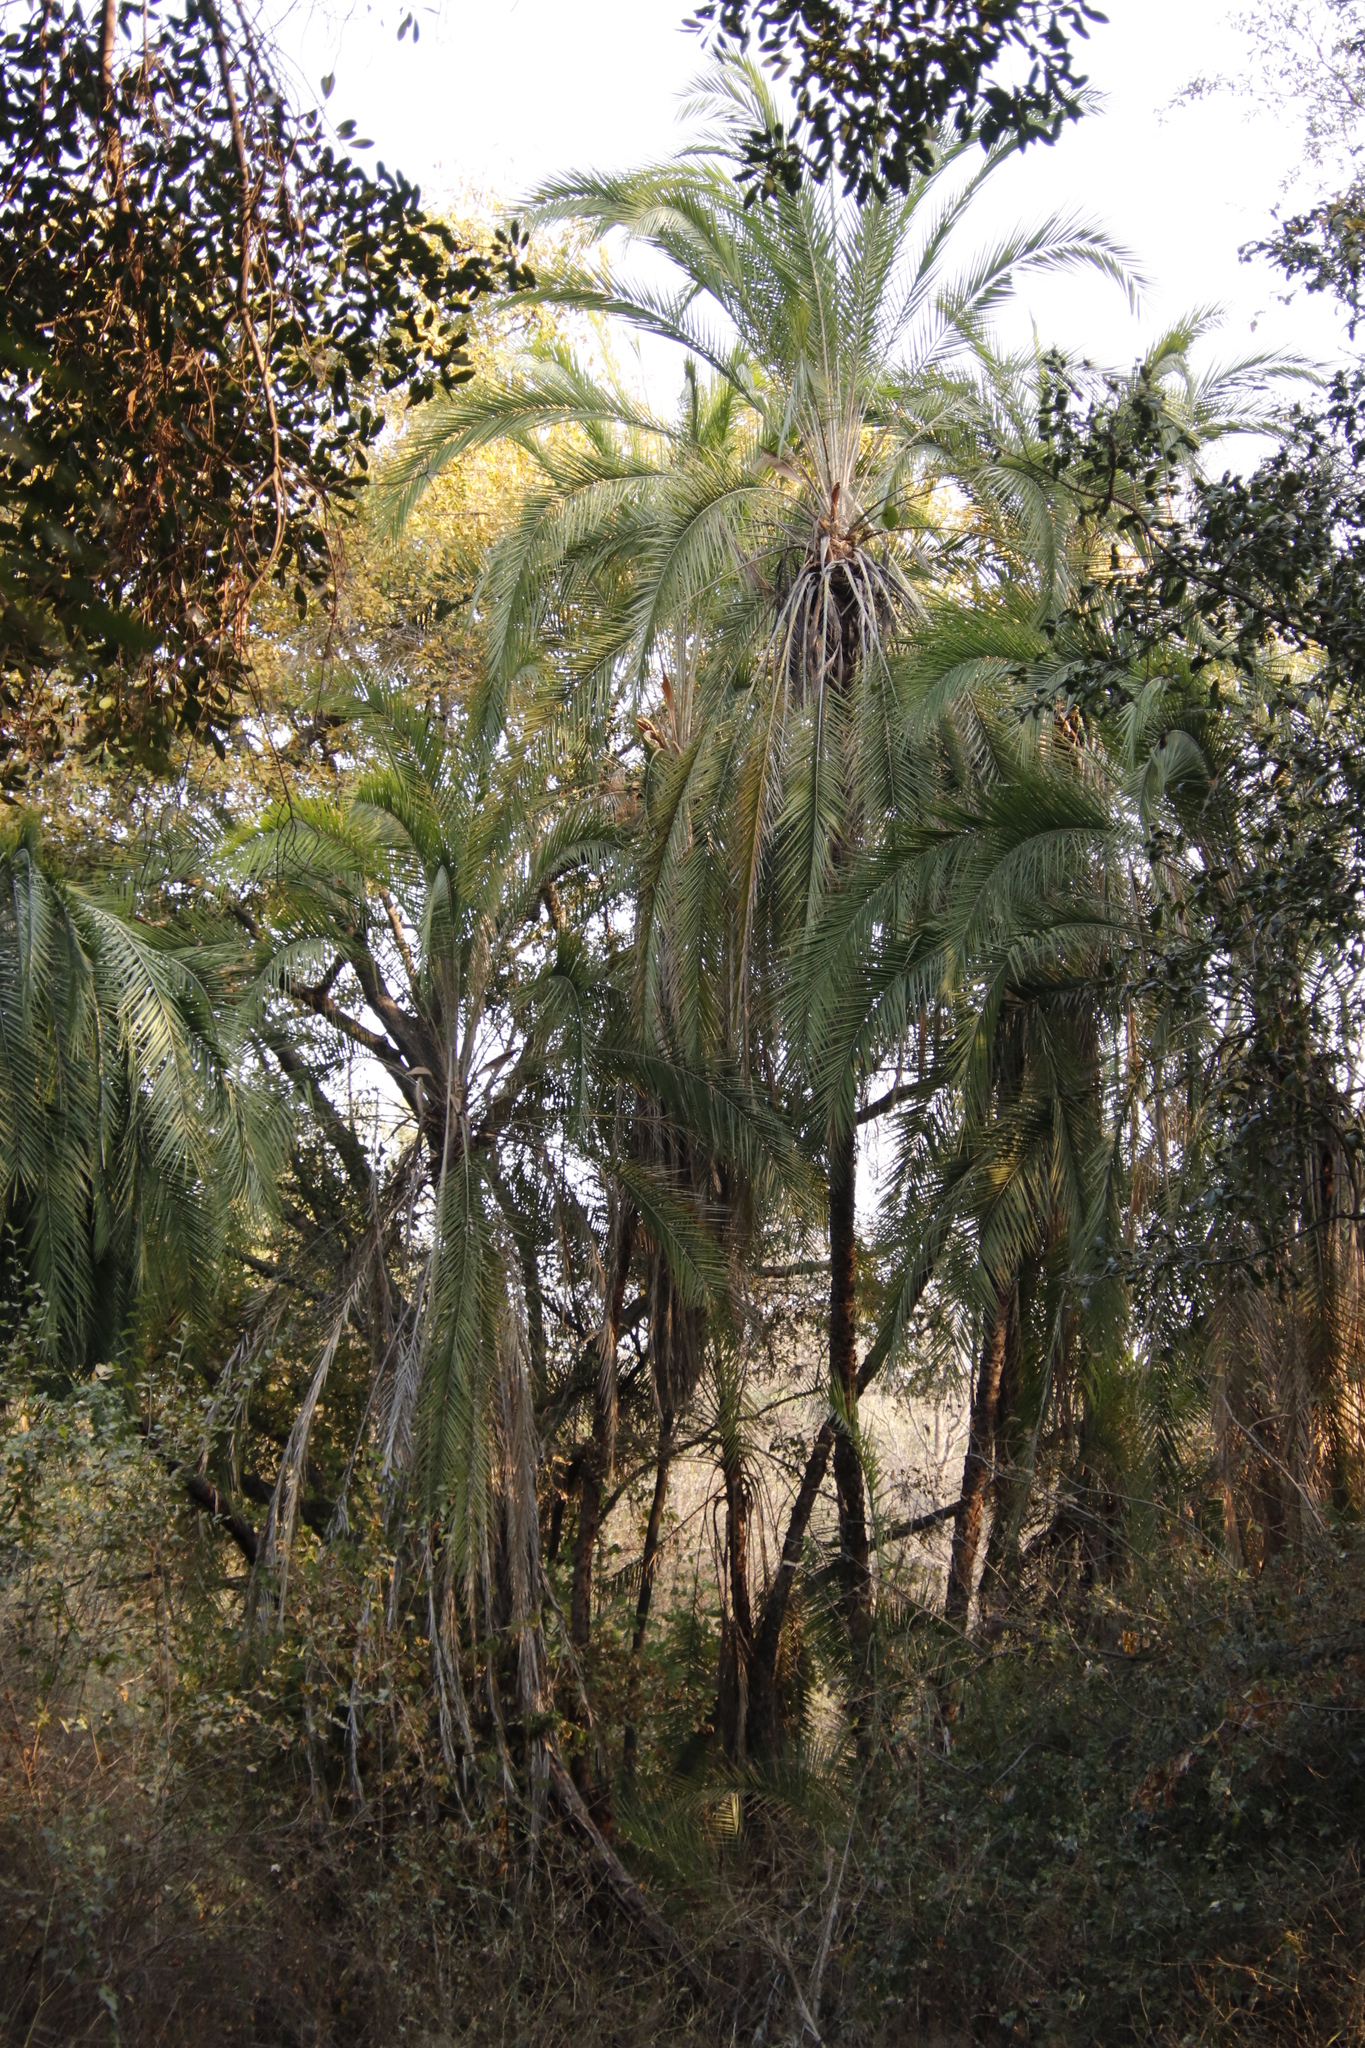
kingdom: Plantae
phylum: Tracheophyta
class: Liliopsida
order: Arecales
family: Arecaceae
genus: Phoenix
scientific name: Phoenix reclinata
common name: Senegal date palm
